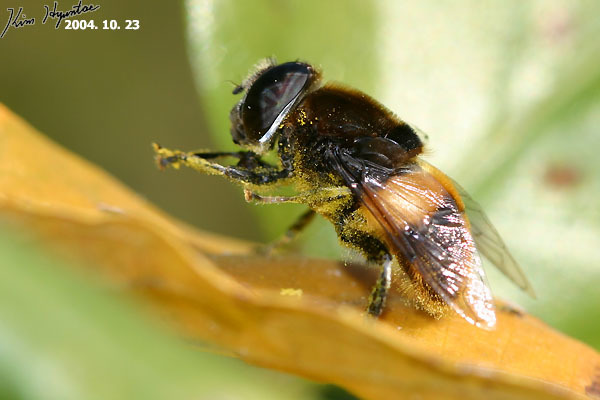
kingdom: Animalia
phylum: Arthropoda
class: Insecta
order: Diptera
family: Syrphidae
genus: Phytomia
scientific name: Phytomia zonata
